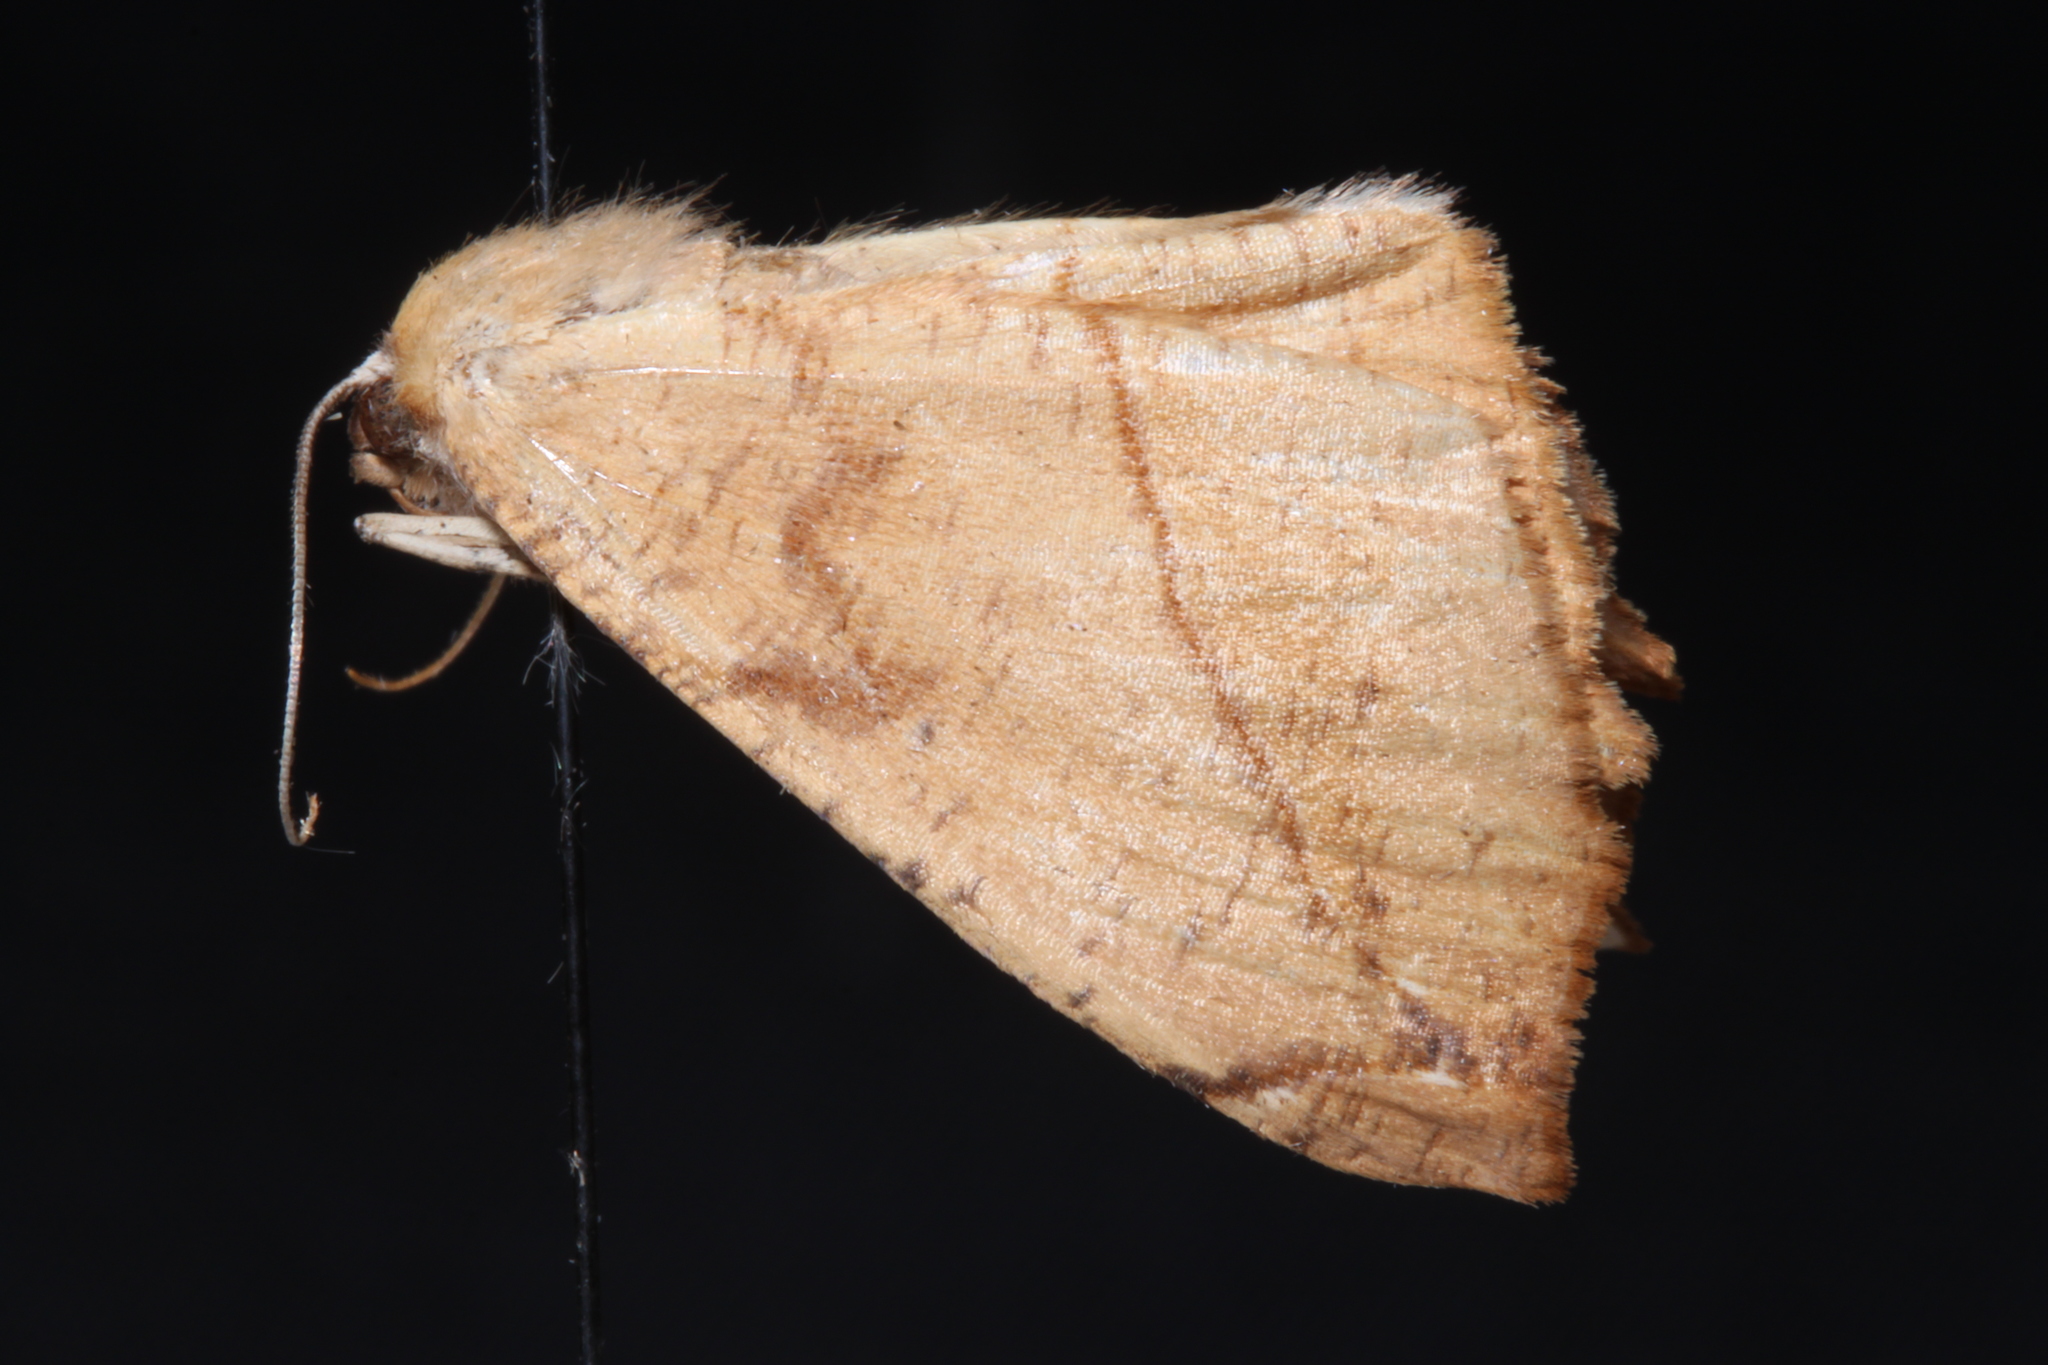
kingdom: Animalia
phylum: Arthropoda
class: Insecta
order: Lepidoptera
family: Geometridae
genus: Prochoerodes
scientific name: Prochoerodes lineola
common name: Large maple spanworm
